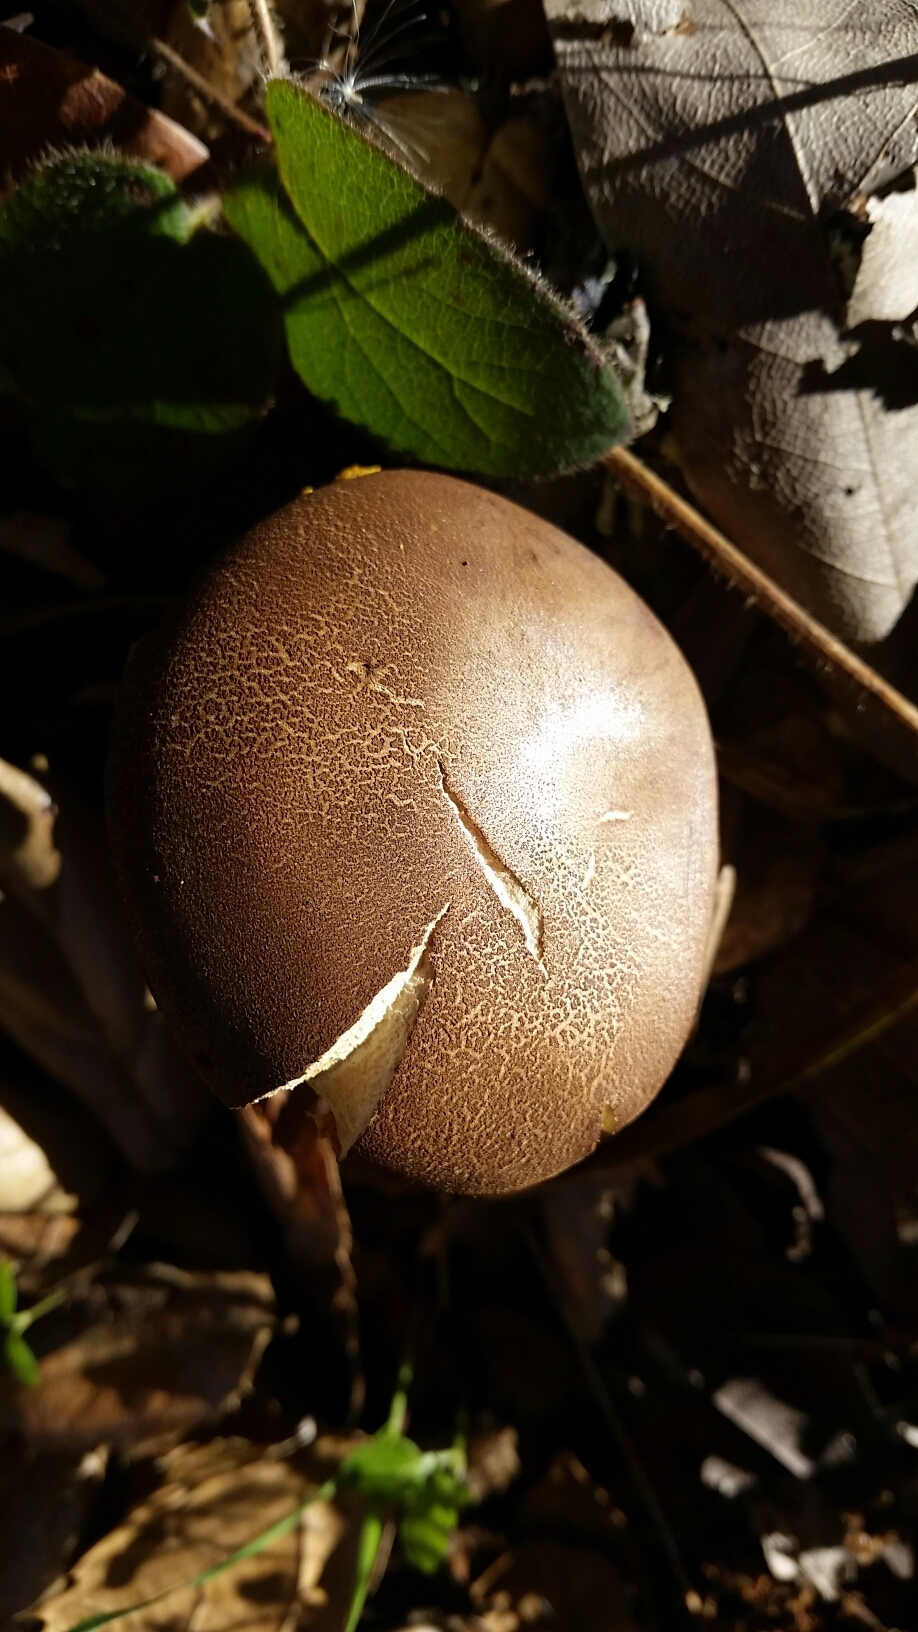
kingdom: Fungi
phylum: Basidiomycota
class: Agaricomycetes
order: Boletales
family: Boletaceae
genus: Xerocomus
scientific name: Xerocomus subtomentosus
